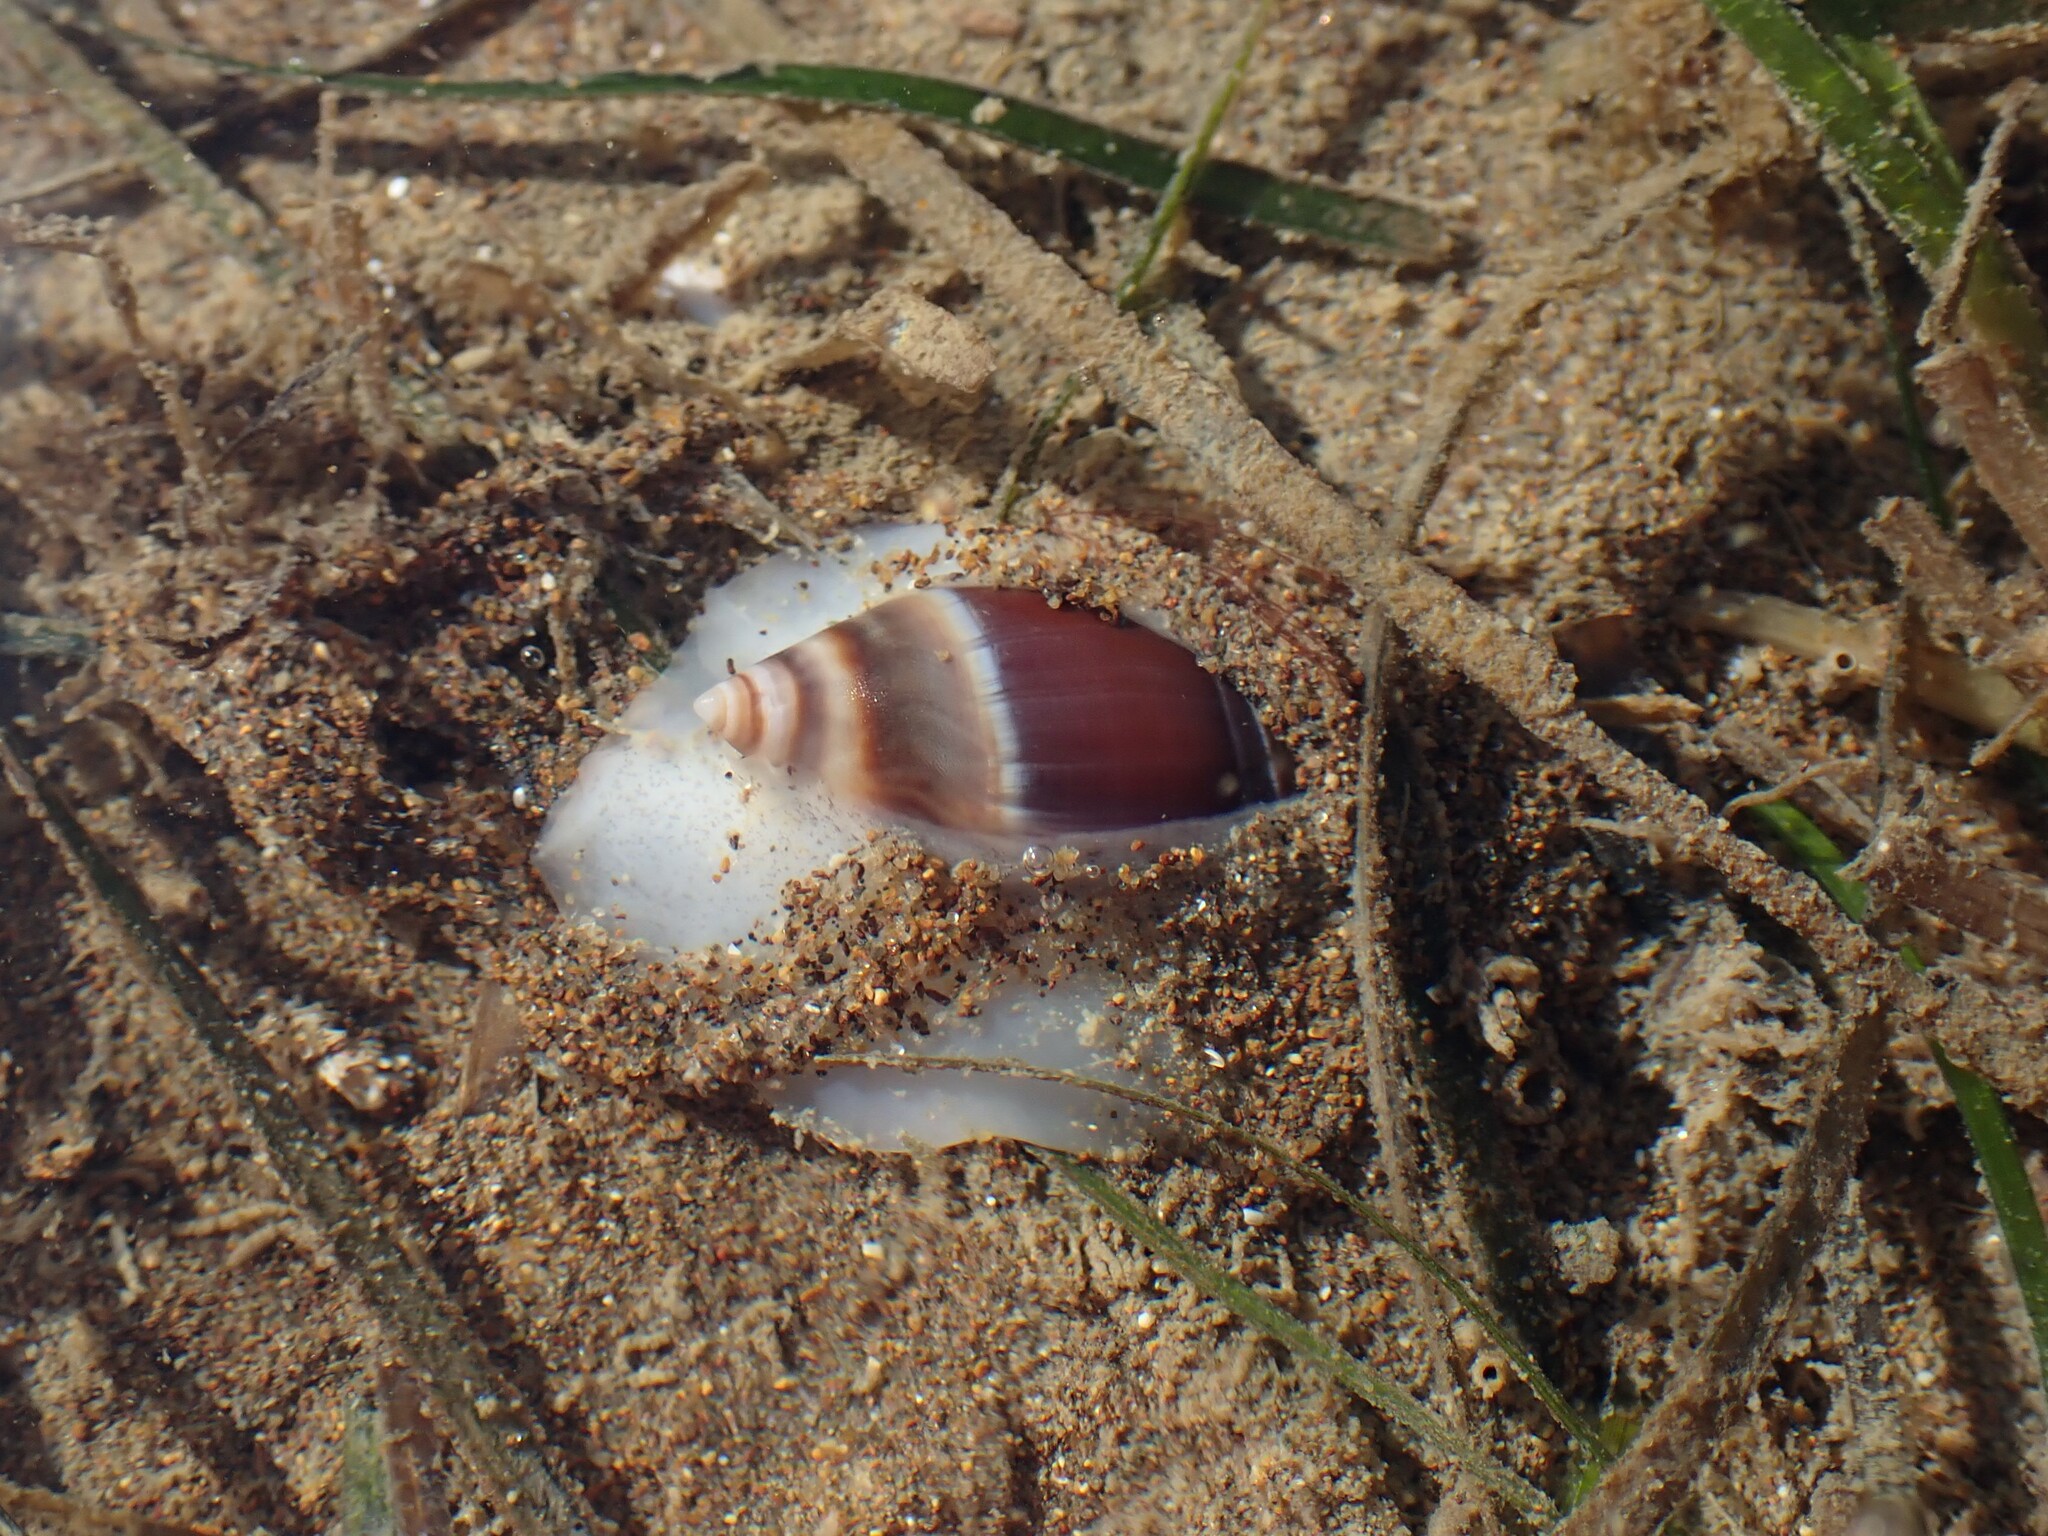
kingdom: Animalia
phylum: Mollusca
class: Gastropoda
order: Neogastropoda
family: Ancillariidae
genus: Amalda
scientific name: Amalda australis
